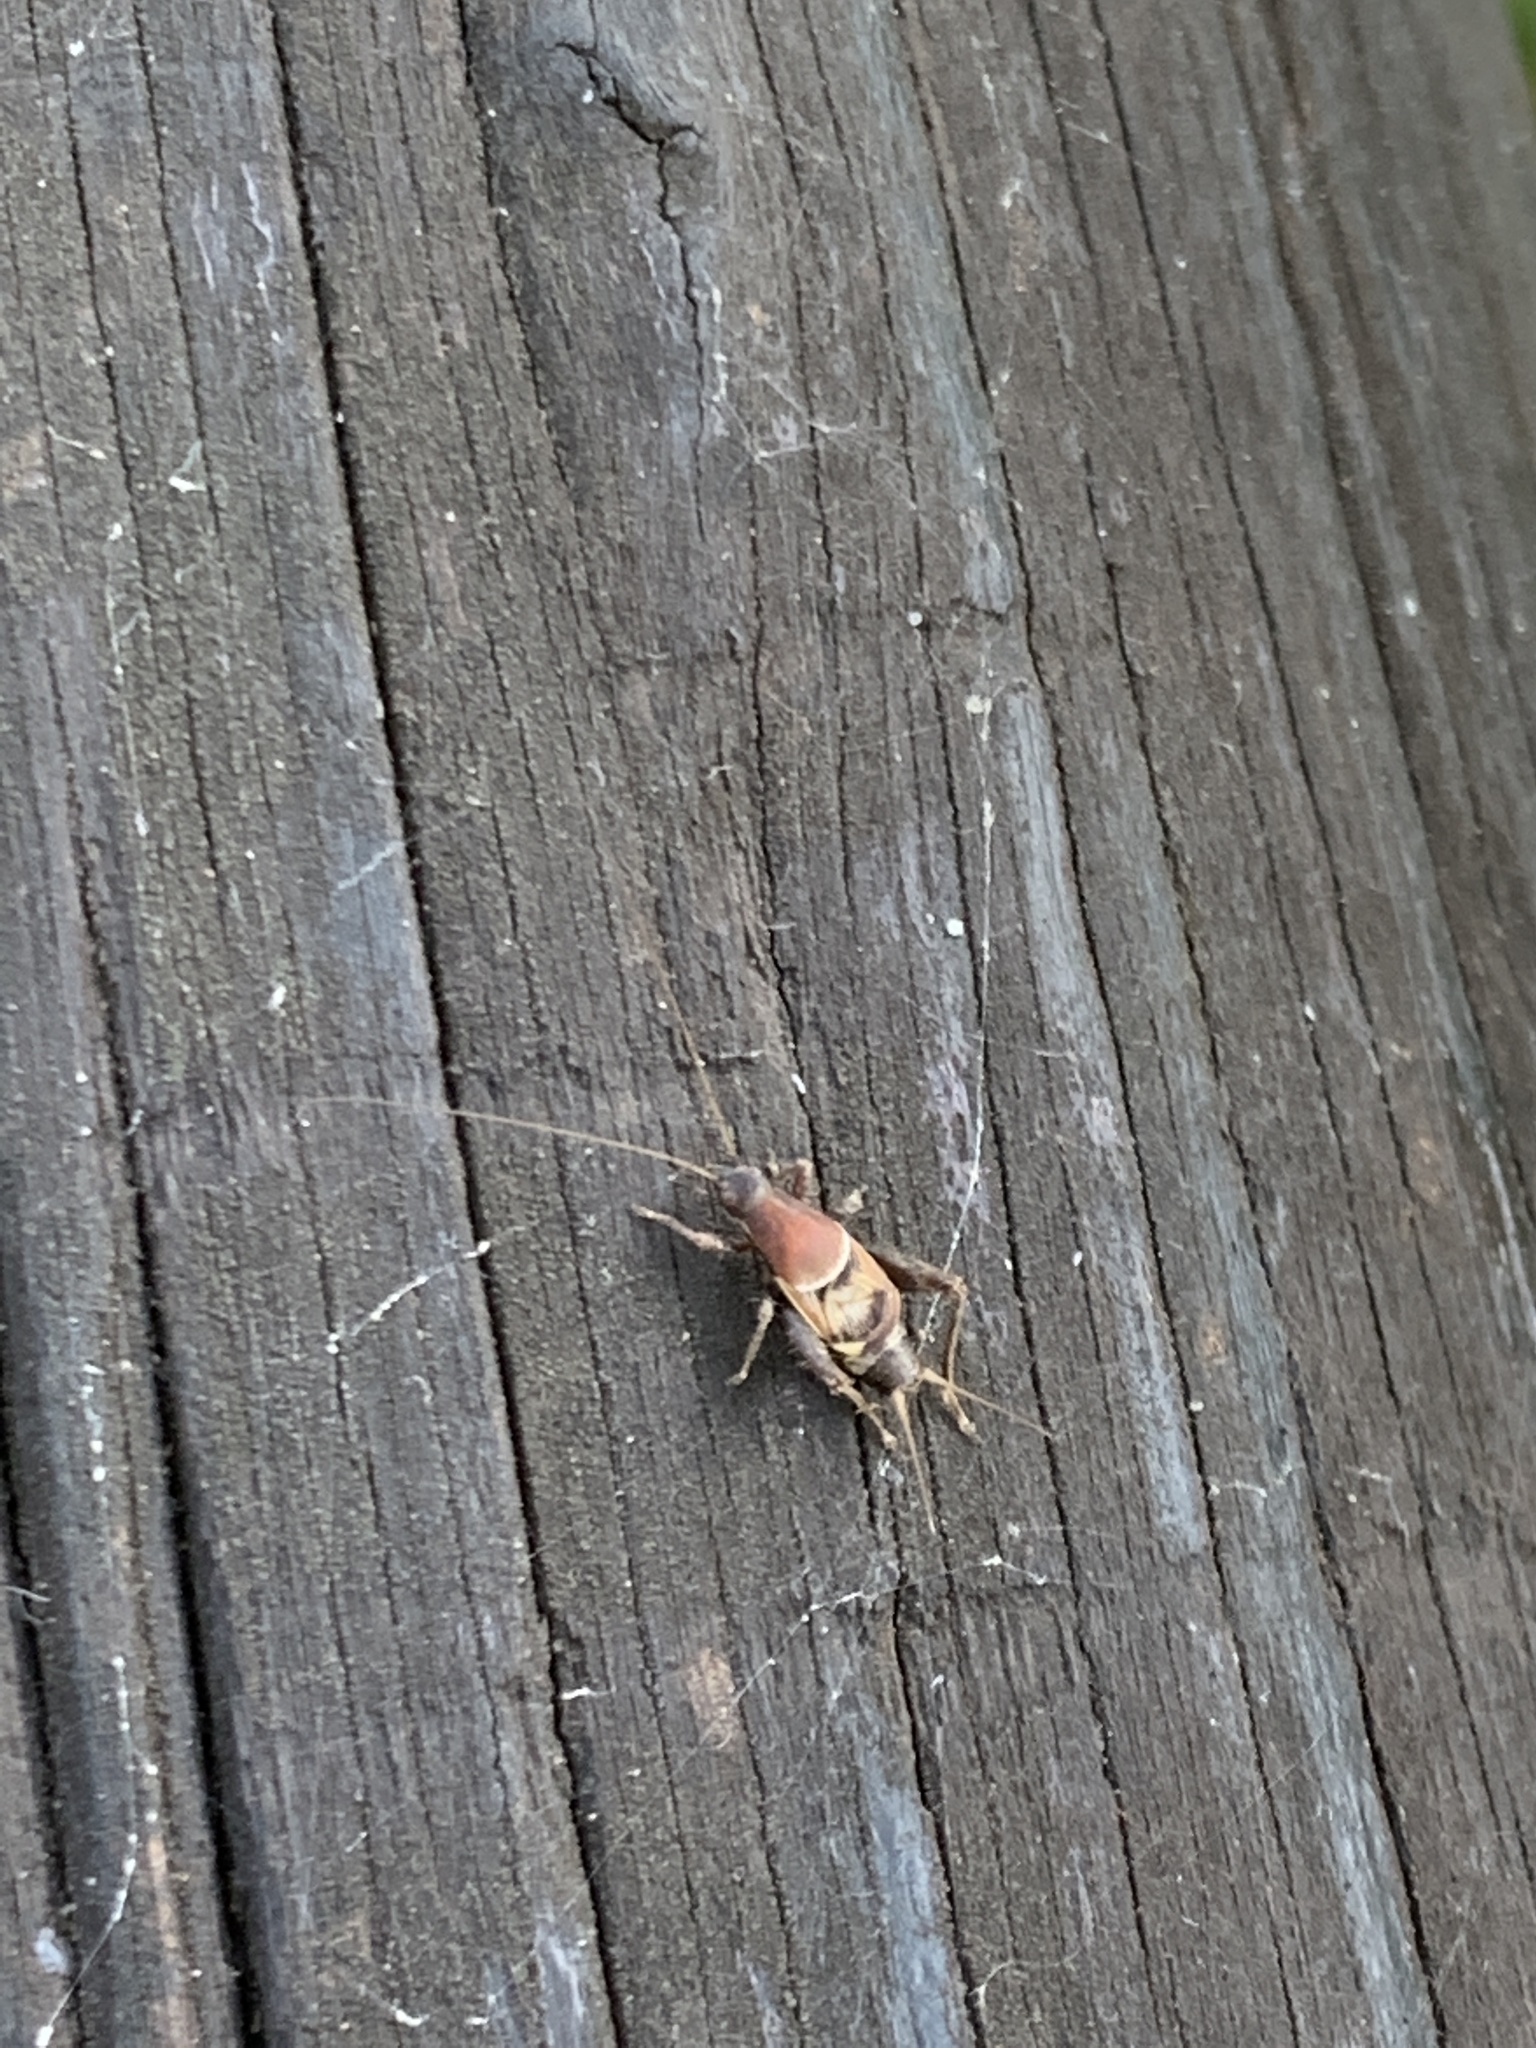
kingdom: Animalia
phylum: Arthropoda
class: Insecta
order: Orthoptera
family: Mogoplistidae
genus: Ornebius
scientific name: Ornebius alatus
